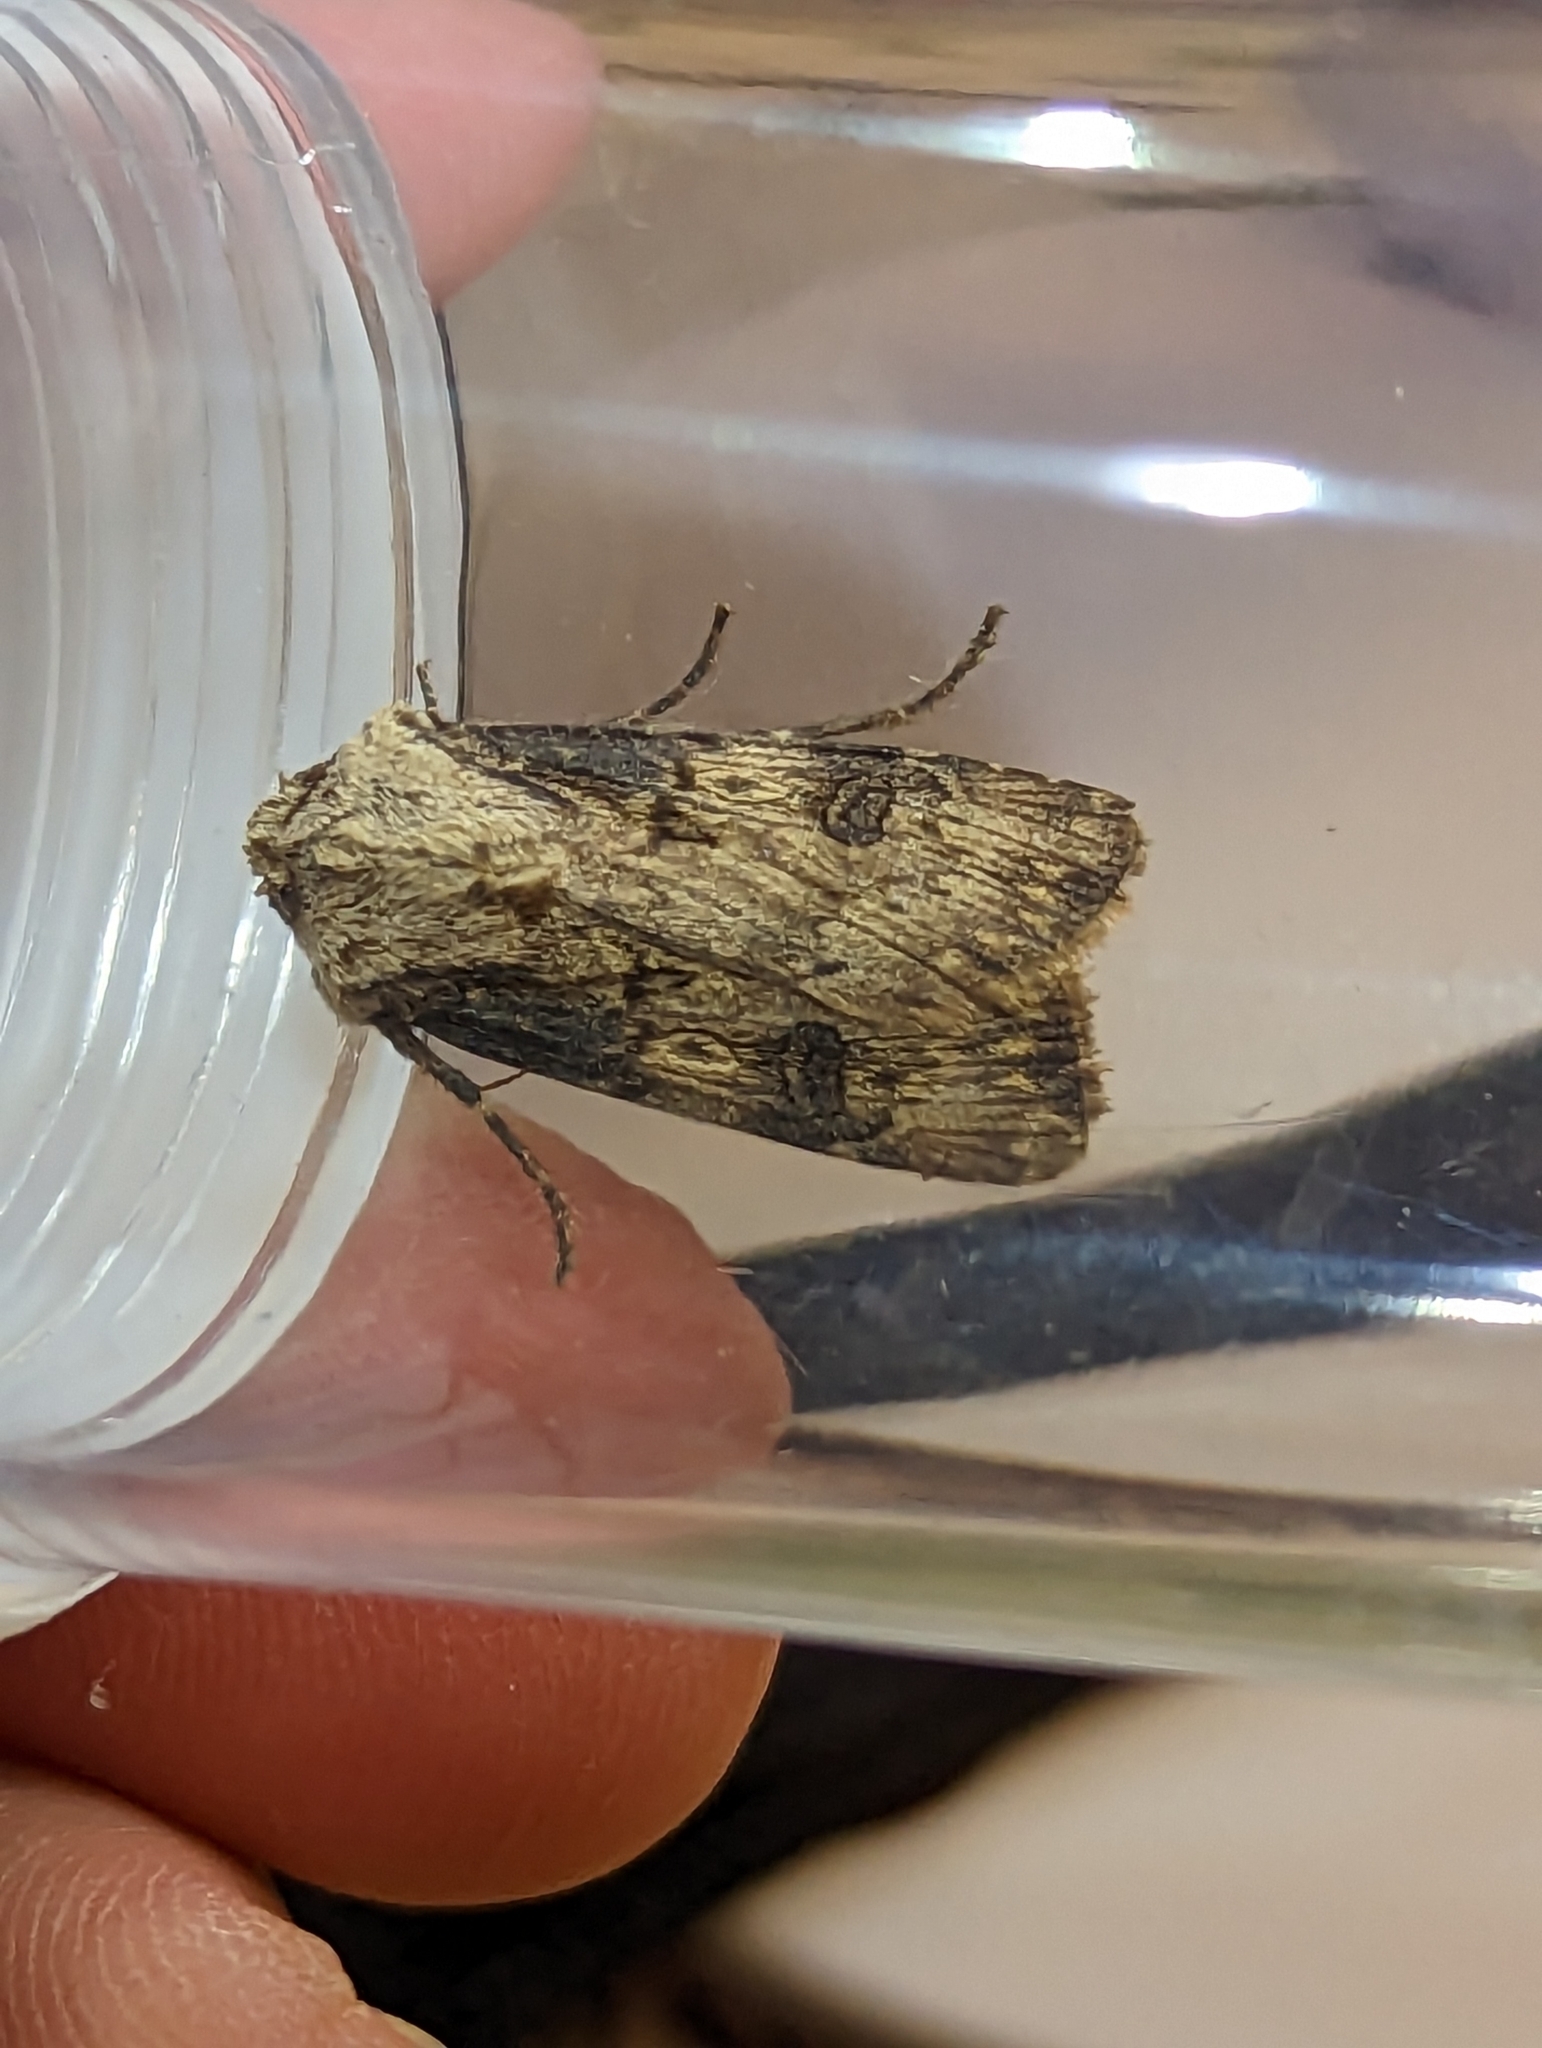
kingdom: Animalia
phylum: Arthropoda
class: Insecta
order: Lepidoptera
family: Noctuidae
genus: Agrotis
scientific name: Agrotis puta
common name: Shuttle-shaped dart
